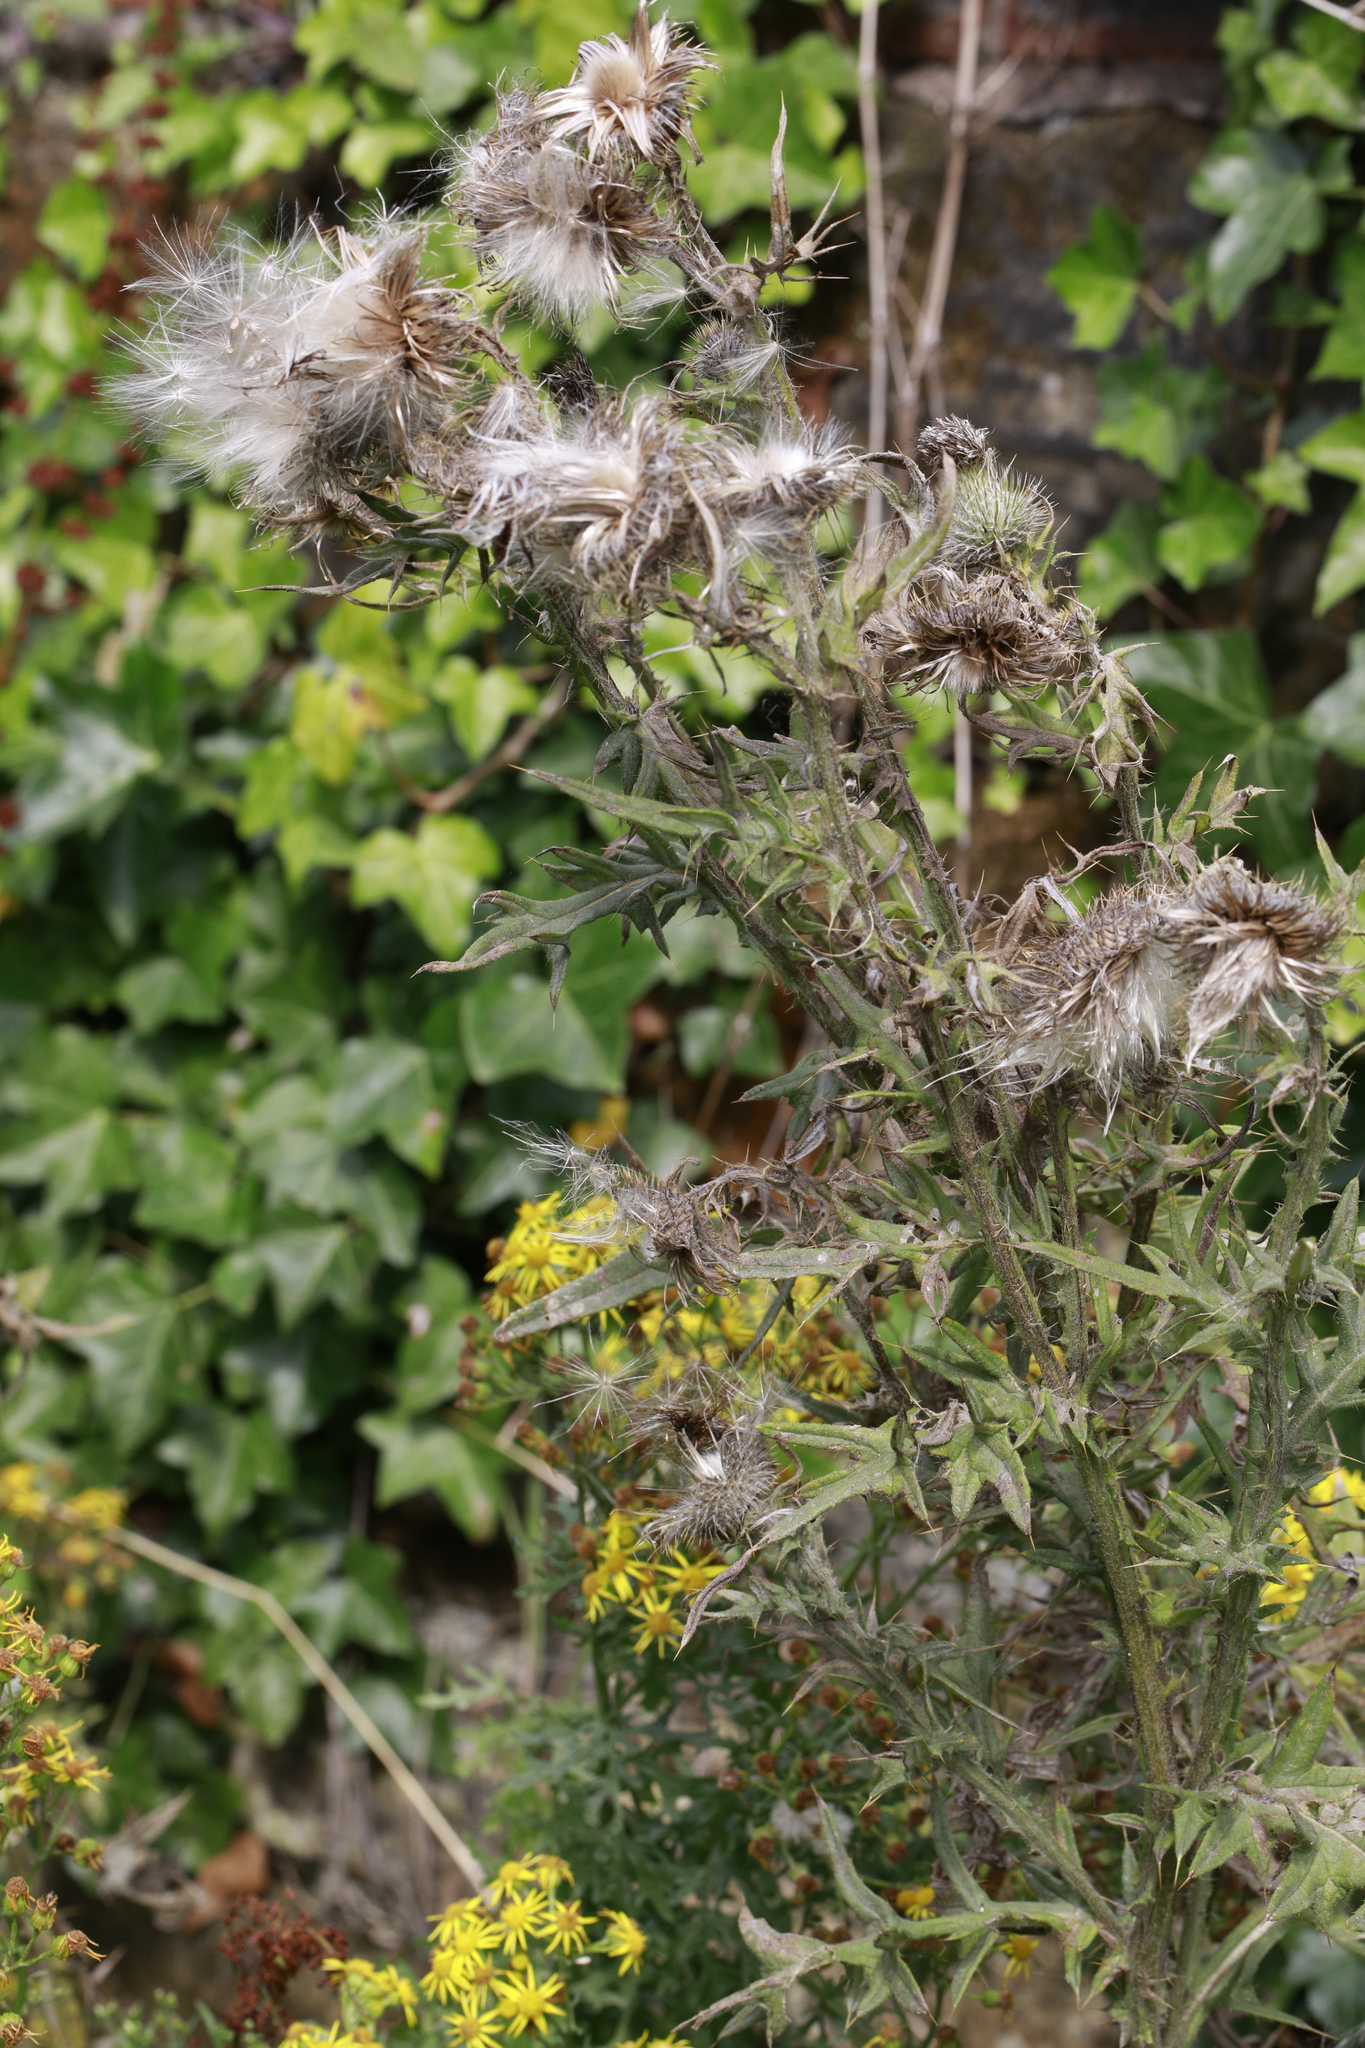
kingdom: Plantae
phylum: Tracheophyta
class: Magnoliopsida
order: Asterales
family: Asteraceae
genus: Cirsium
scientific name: Cirsium vulgare
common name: Bull thistle
